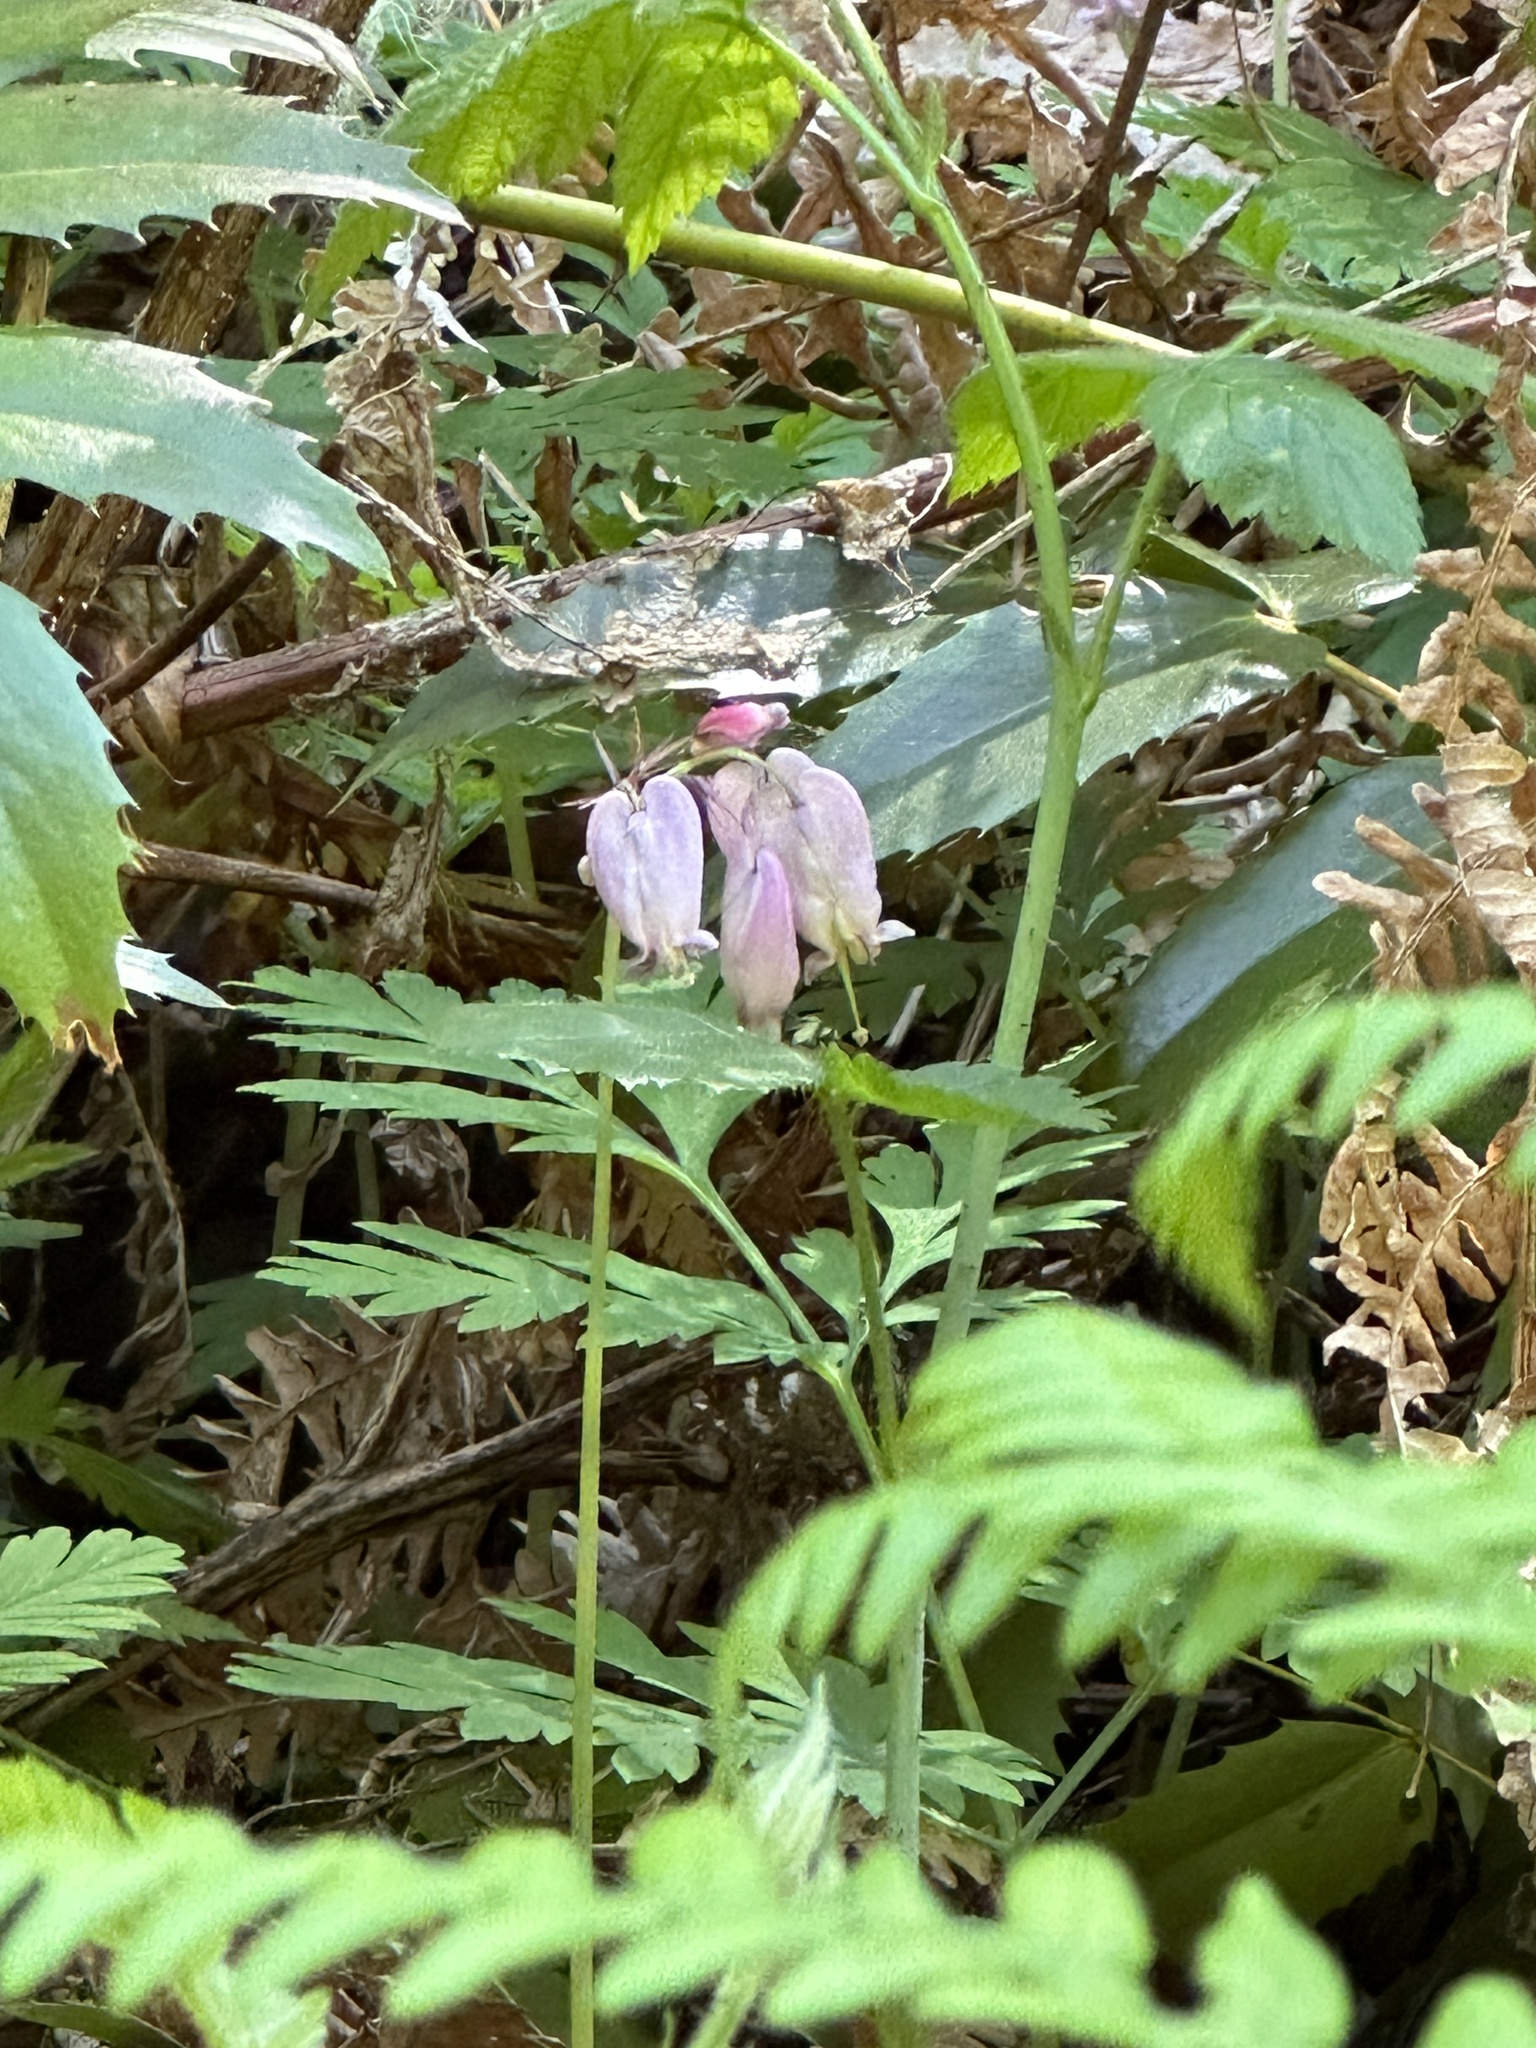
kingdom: Plantae
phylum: Tracheophyta
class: Magnoliopsida
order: Ranunculales
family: Papaveraceae
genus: Dicentra
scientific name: Dicentra formosa
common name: Bleeding-heart
